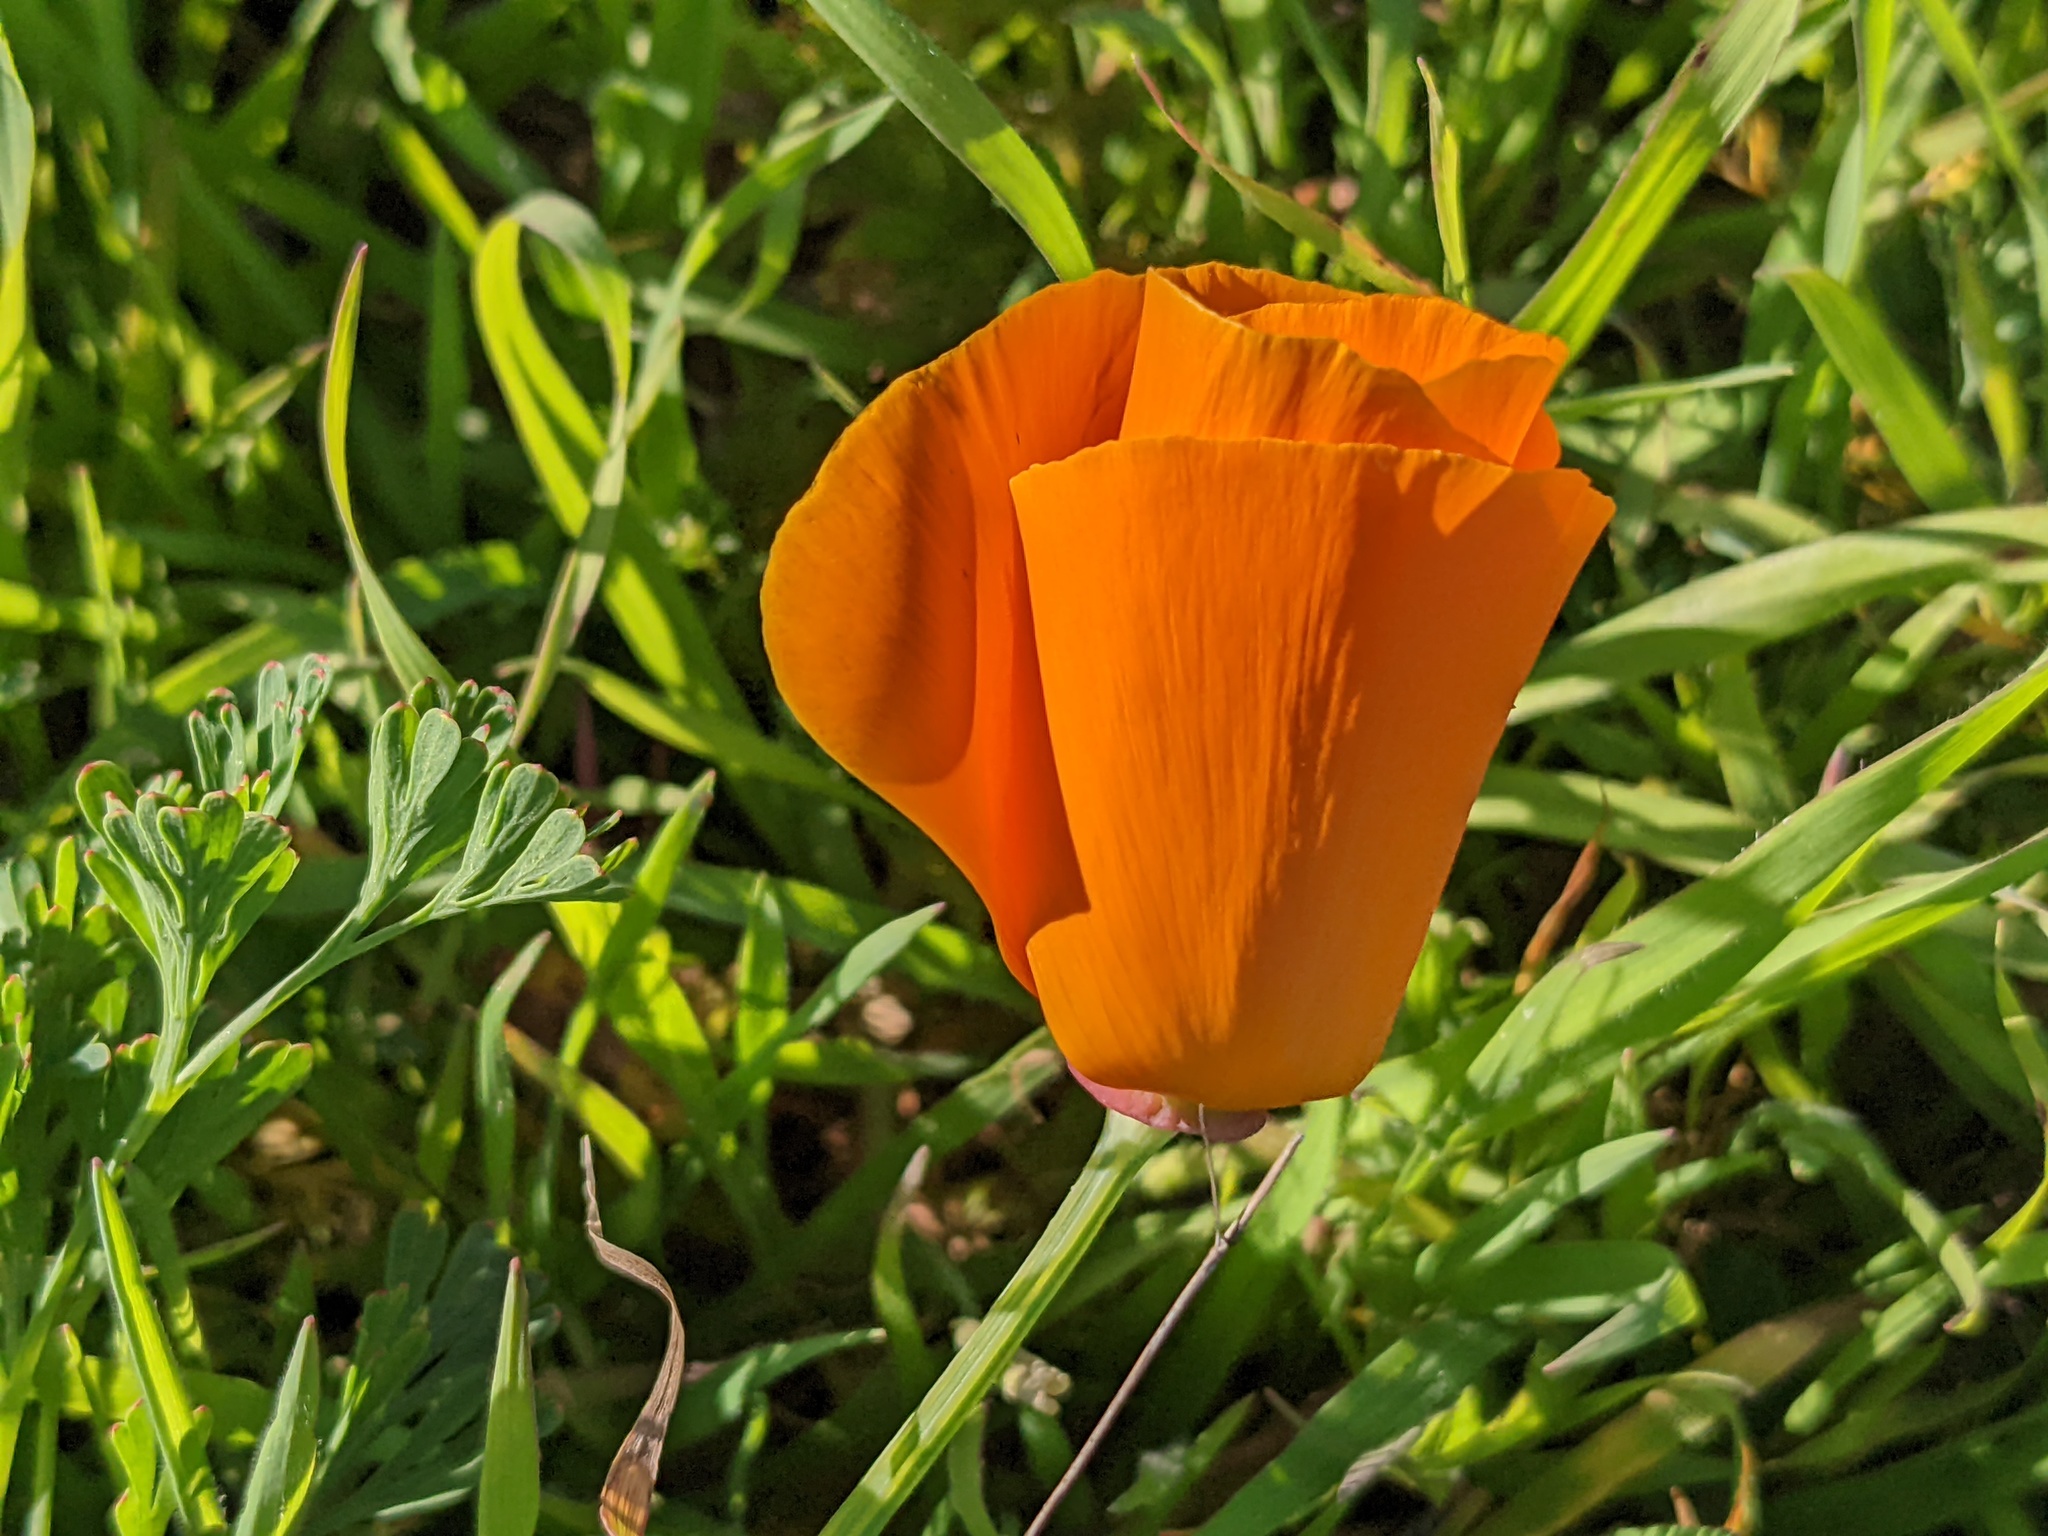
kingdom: Plantae
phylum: Tracheophyta
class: Magnoliopsida
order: Ranunculales
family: Papaveraceae
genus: Eschscholzia
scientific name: Eschscholzia californica
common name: California poppy
